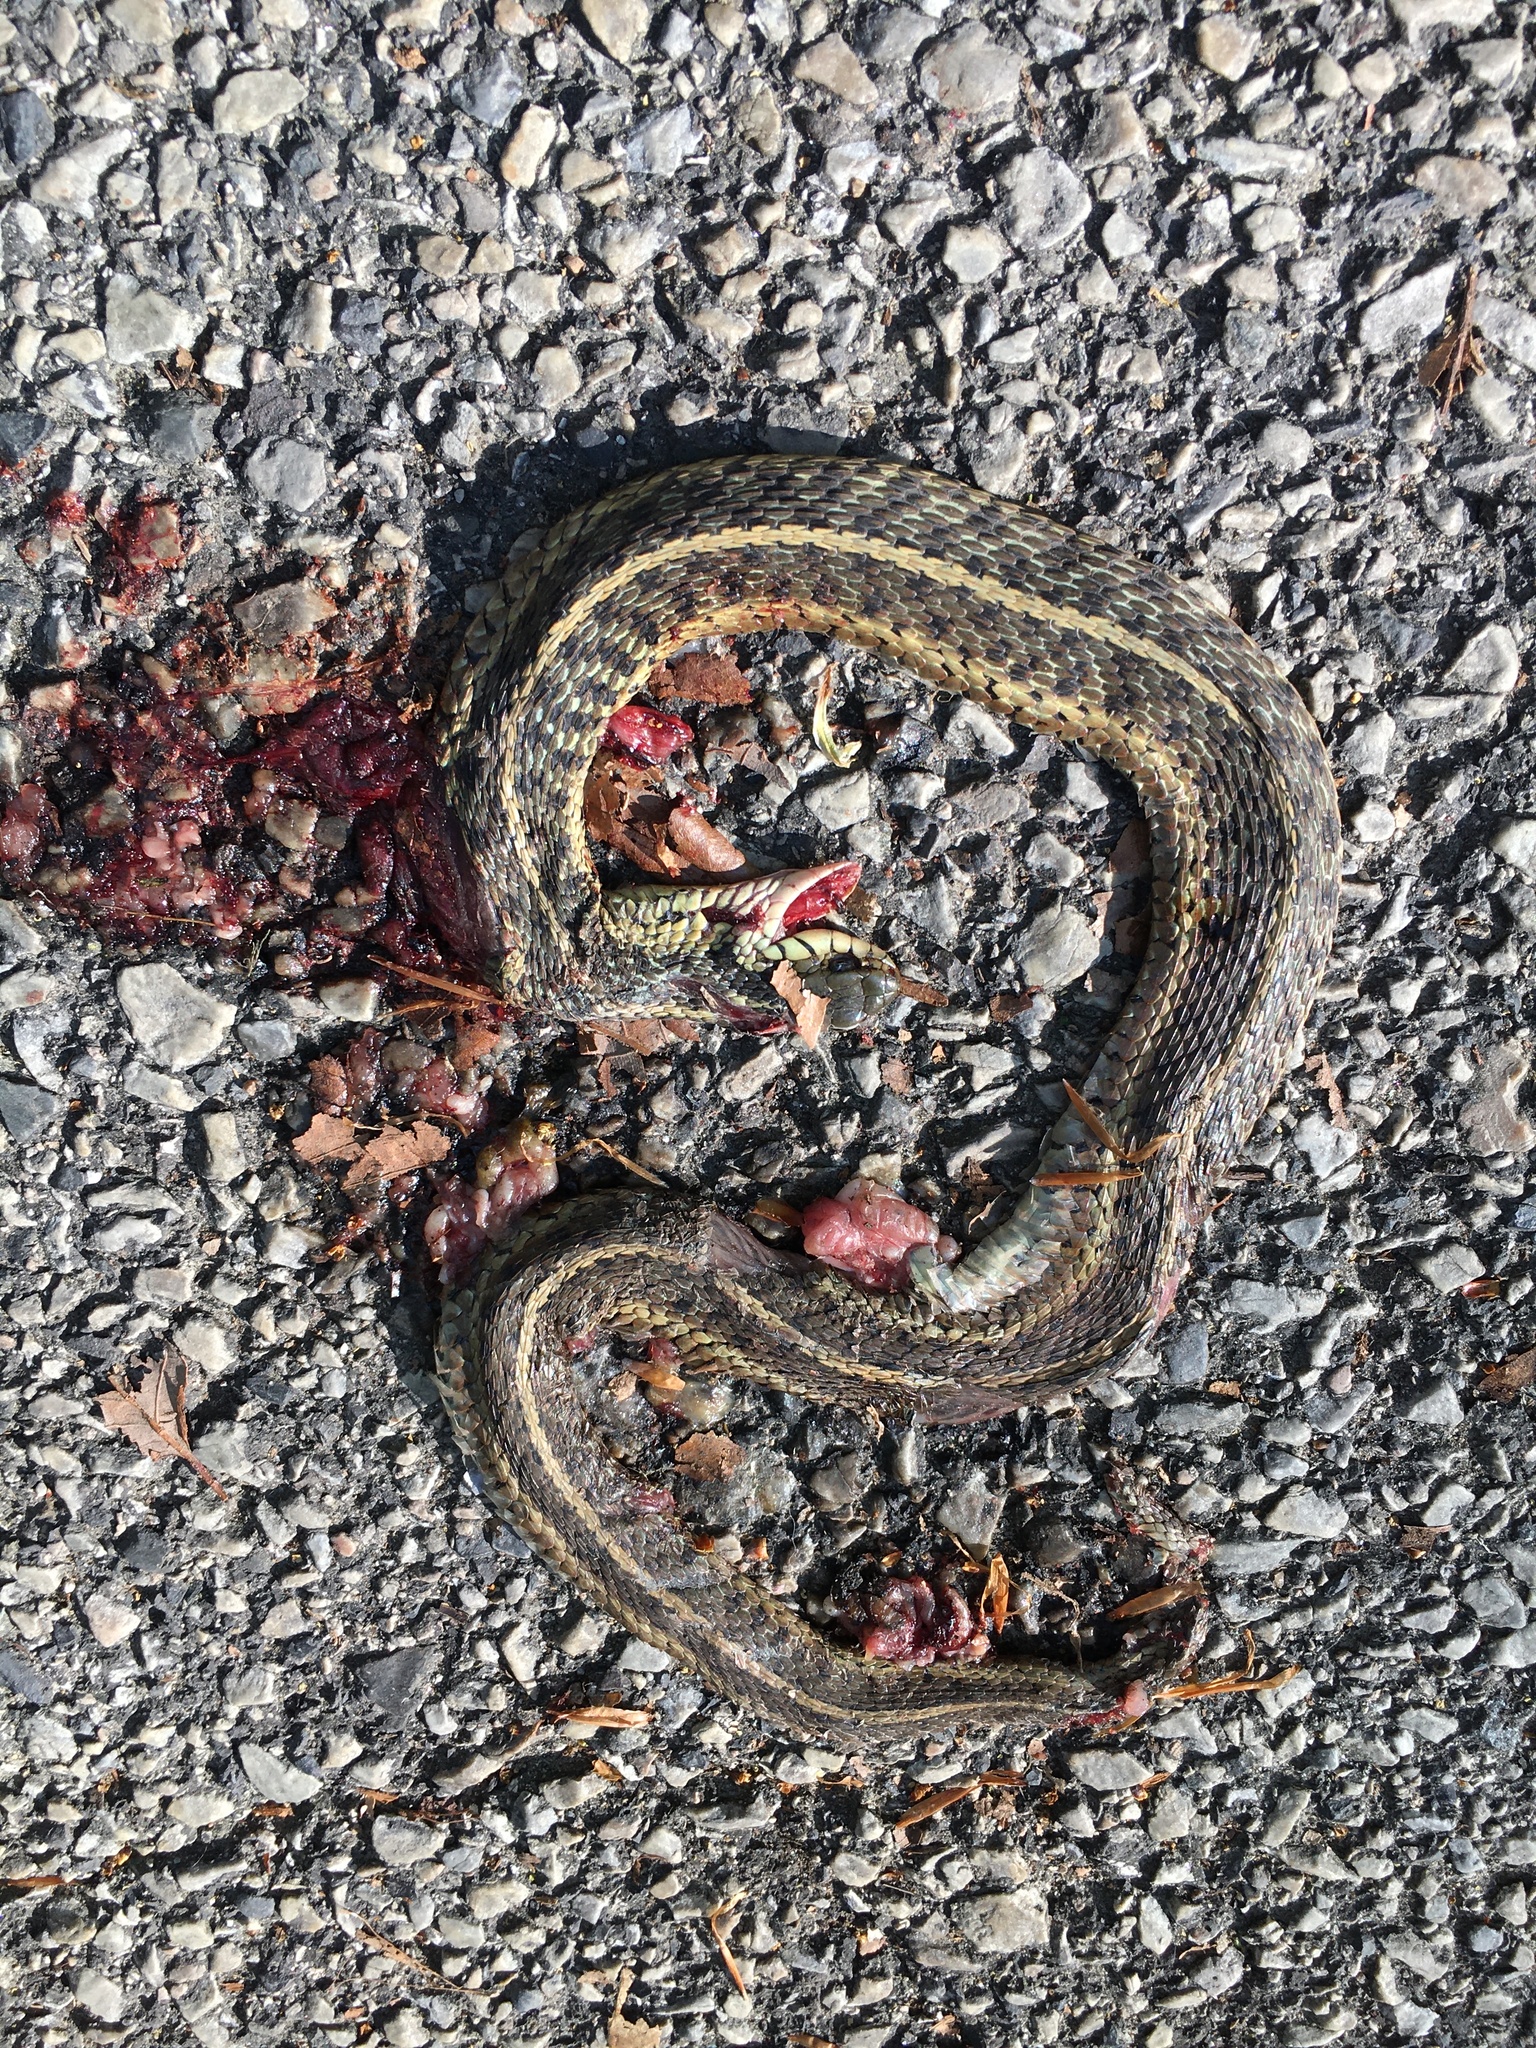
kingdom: Animalia
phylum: Chordata
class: Squamata
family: Colubridae
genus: Thamnophis
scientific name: Thamnophis sirtalis
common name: Common garter snake
